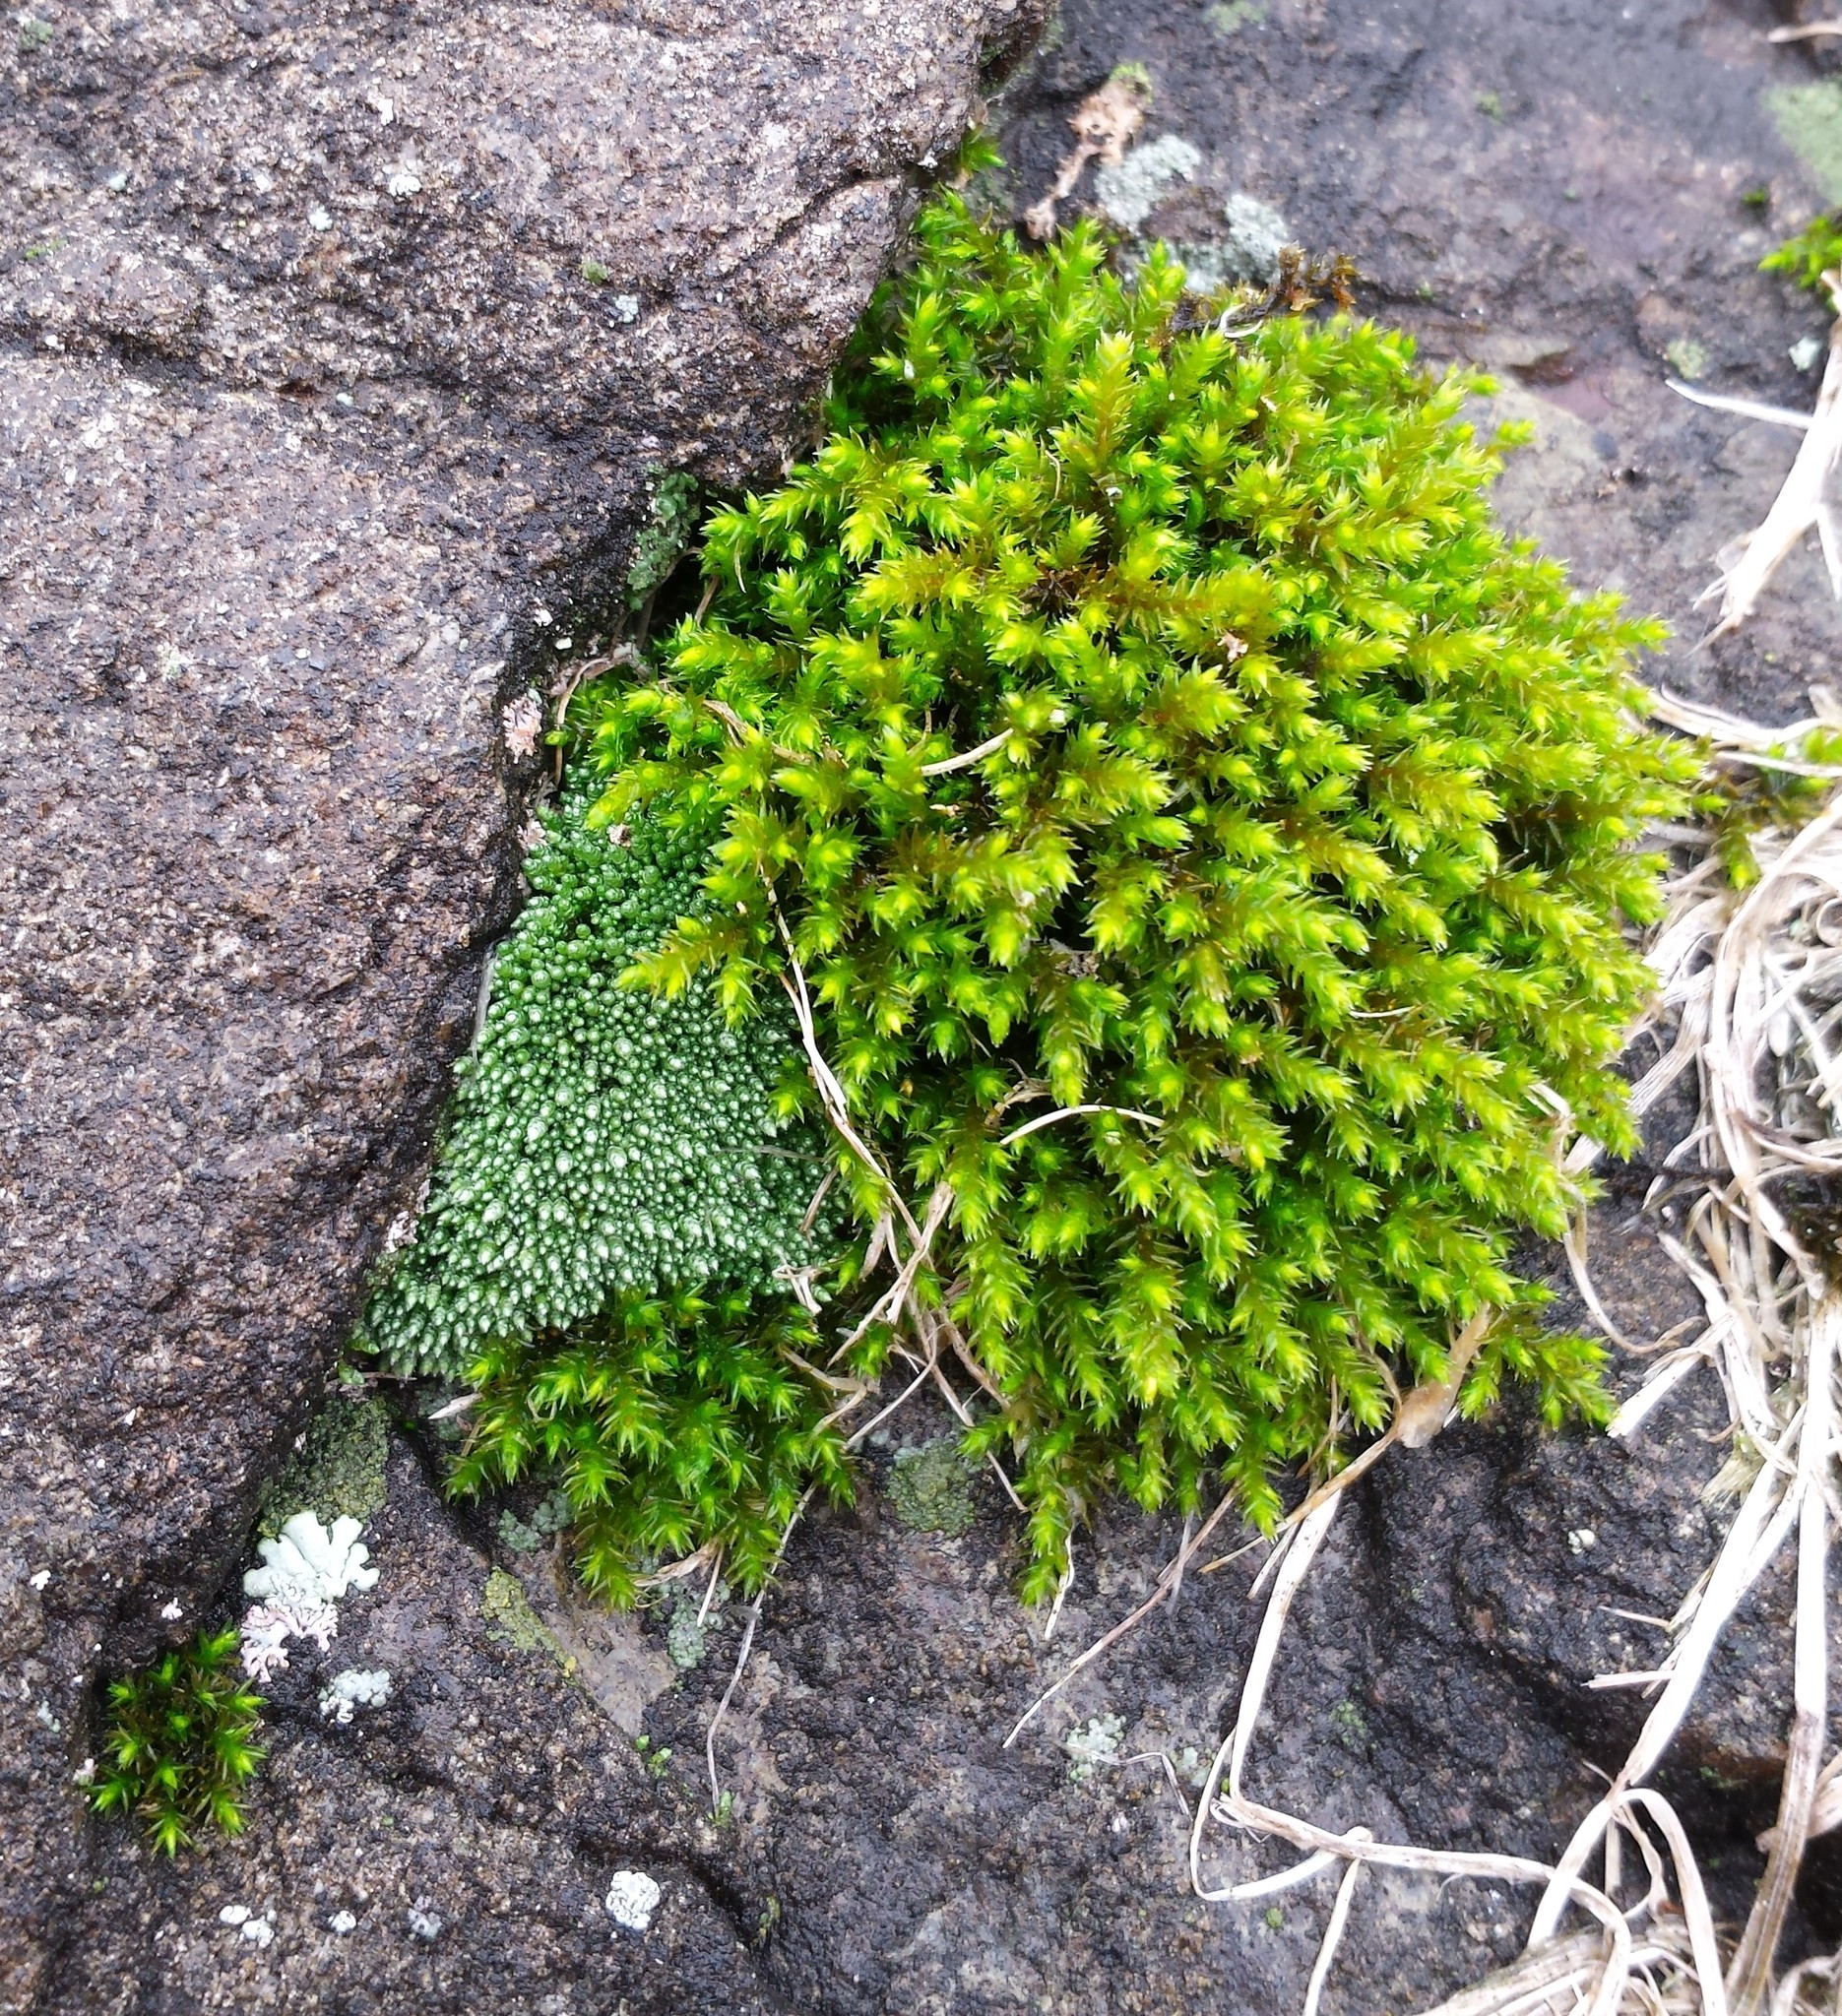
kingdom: Plantae
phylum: Bryophyta
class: Bryopsida
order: Bryales
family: Bryaceae
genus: Bryum
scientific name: Bryum argenteum
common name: Silver-moss
